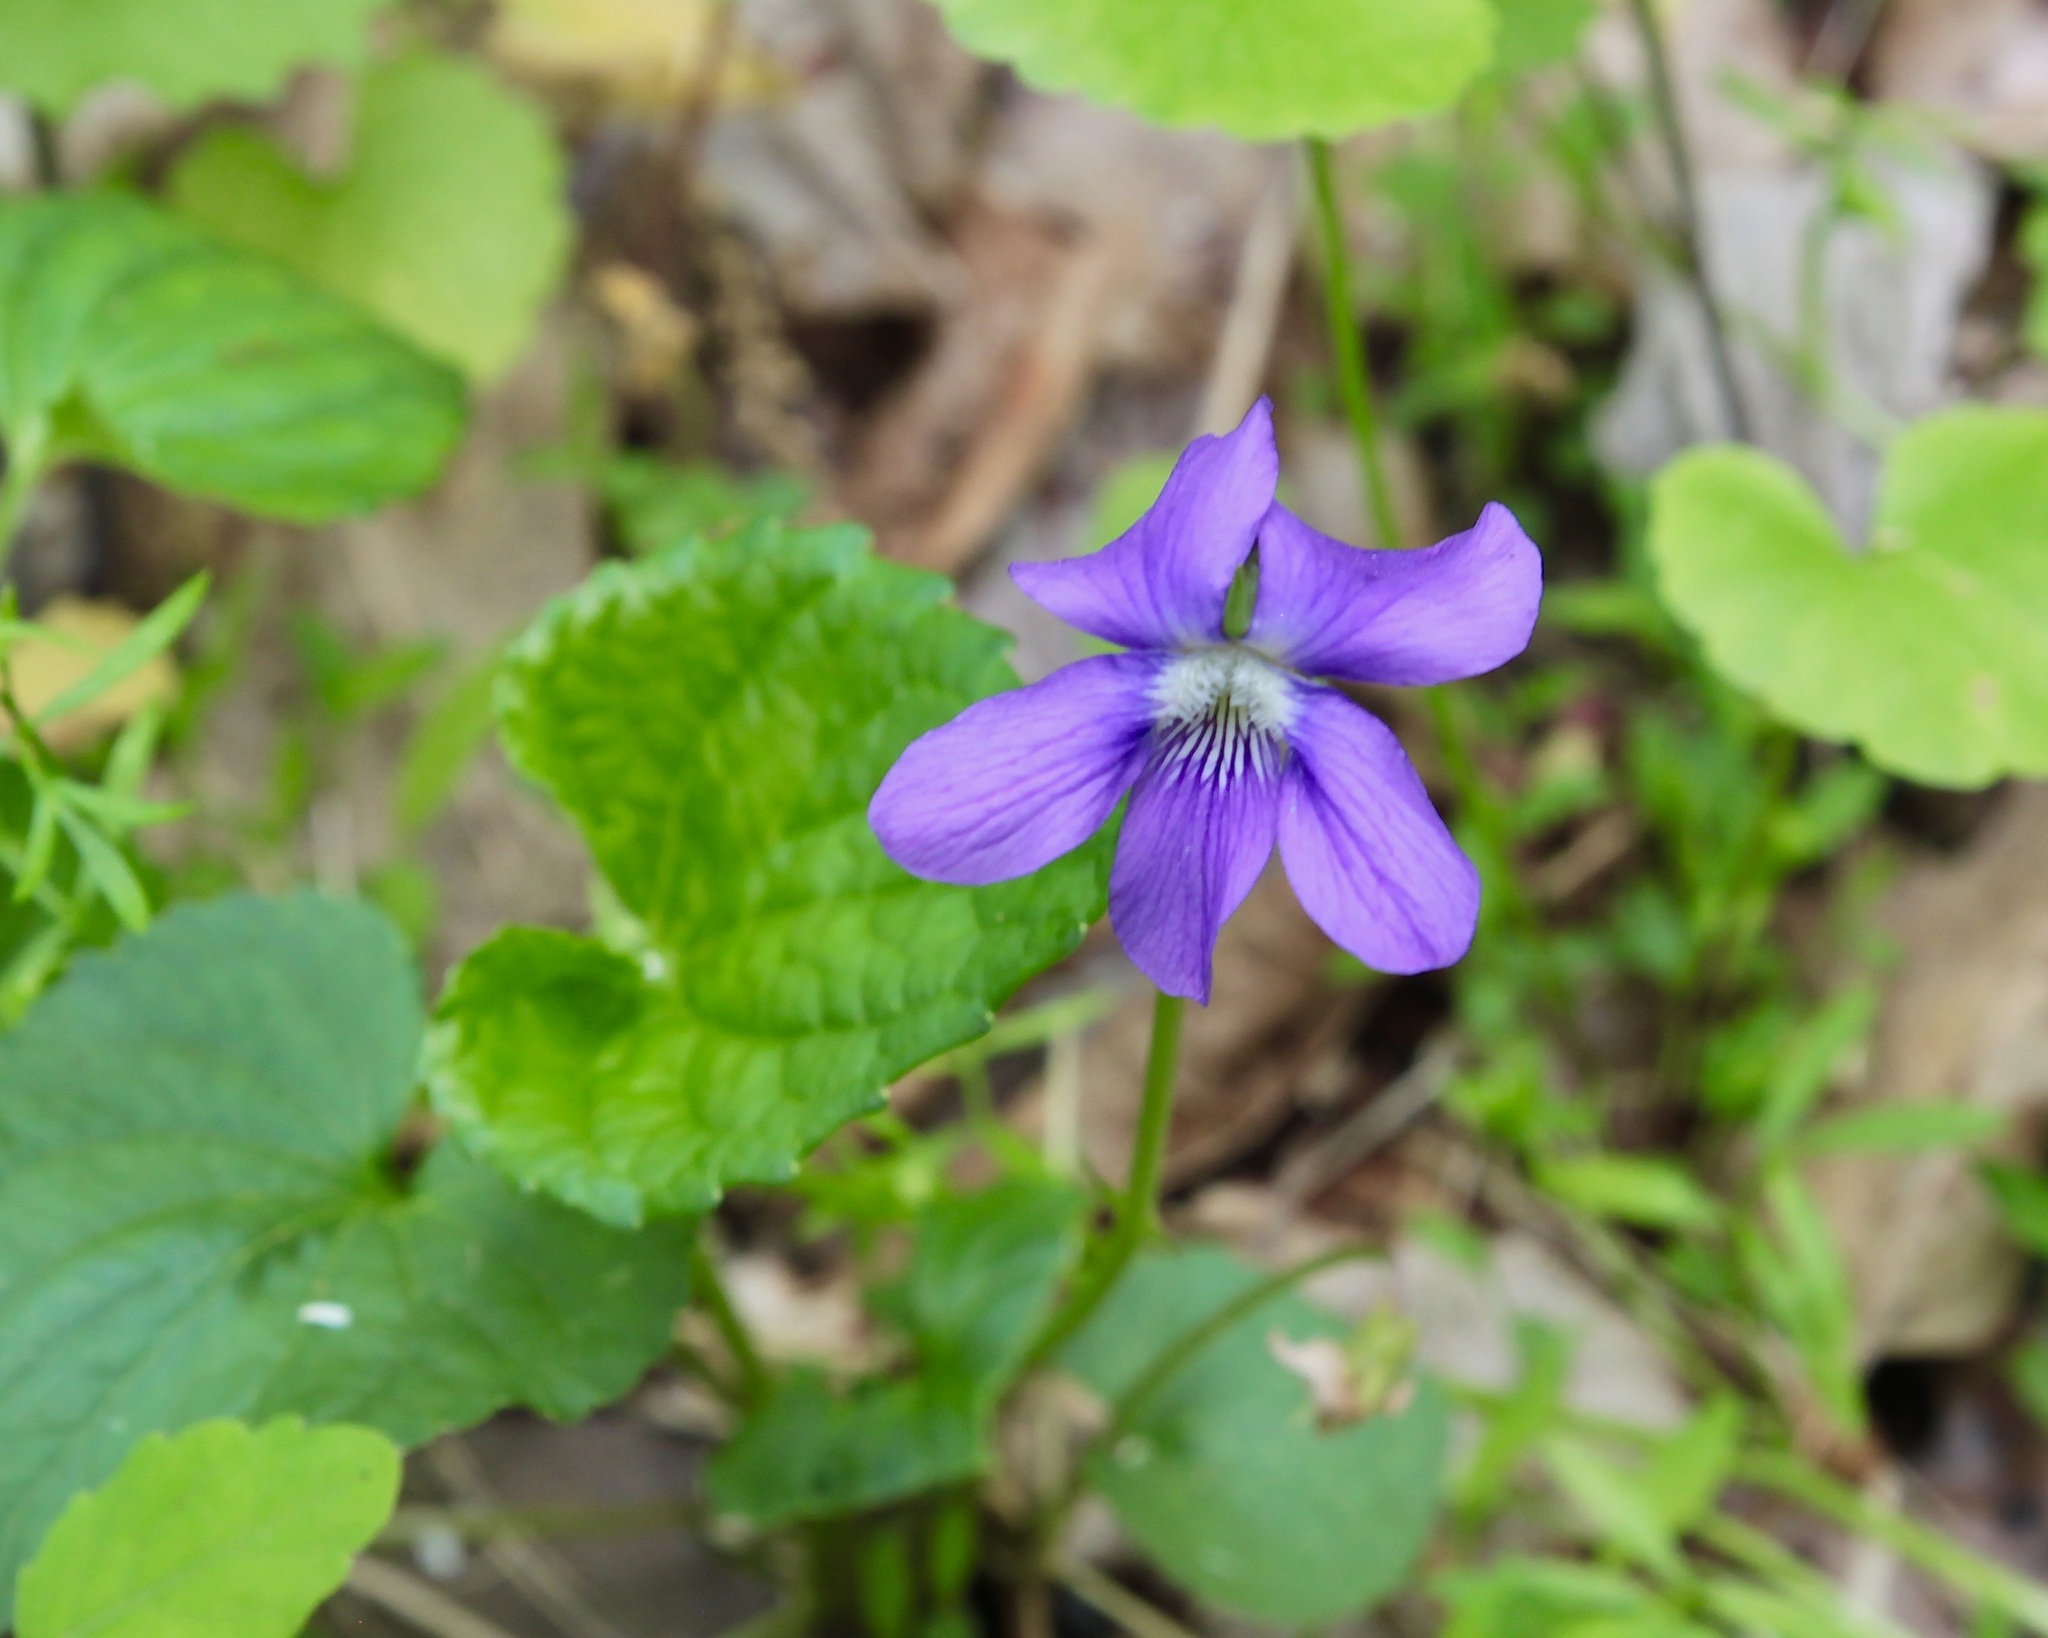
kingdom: Plantae
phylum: Tracheophyta
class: Magnoliopsida
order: Malpighiales
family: Violaceae
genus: Viola
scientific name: Viola sororia
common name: Dooryard violet
